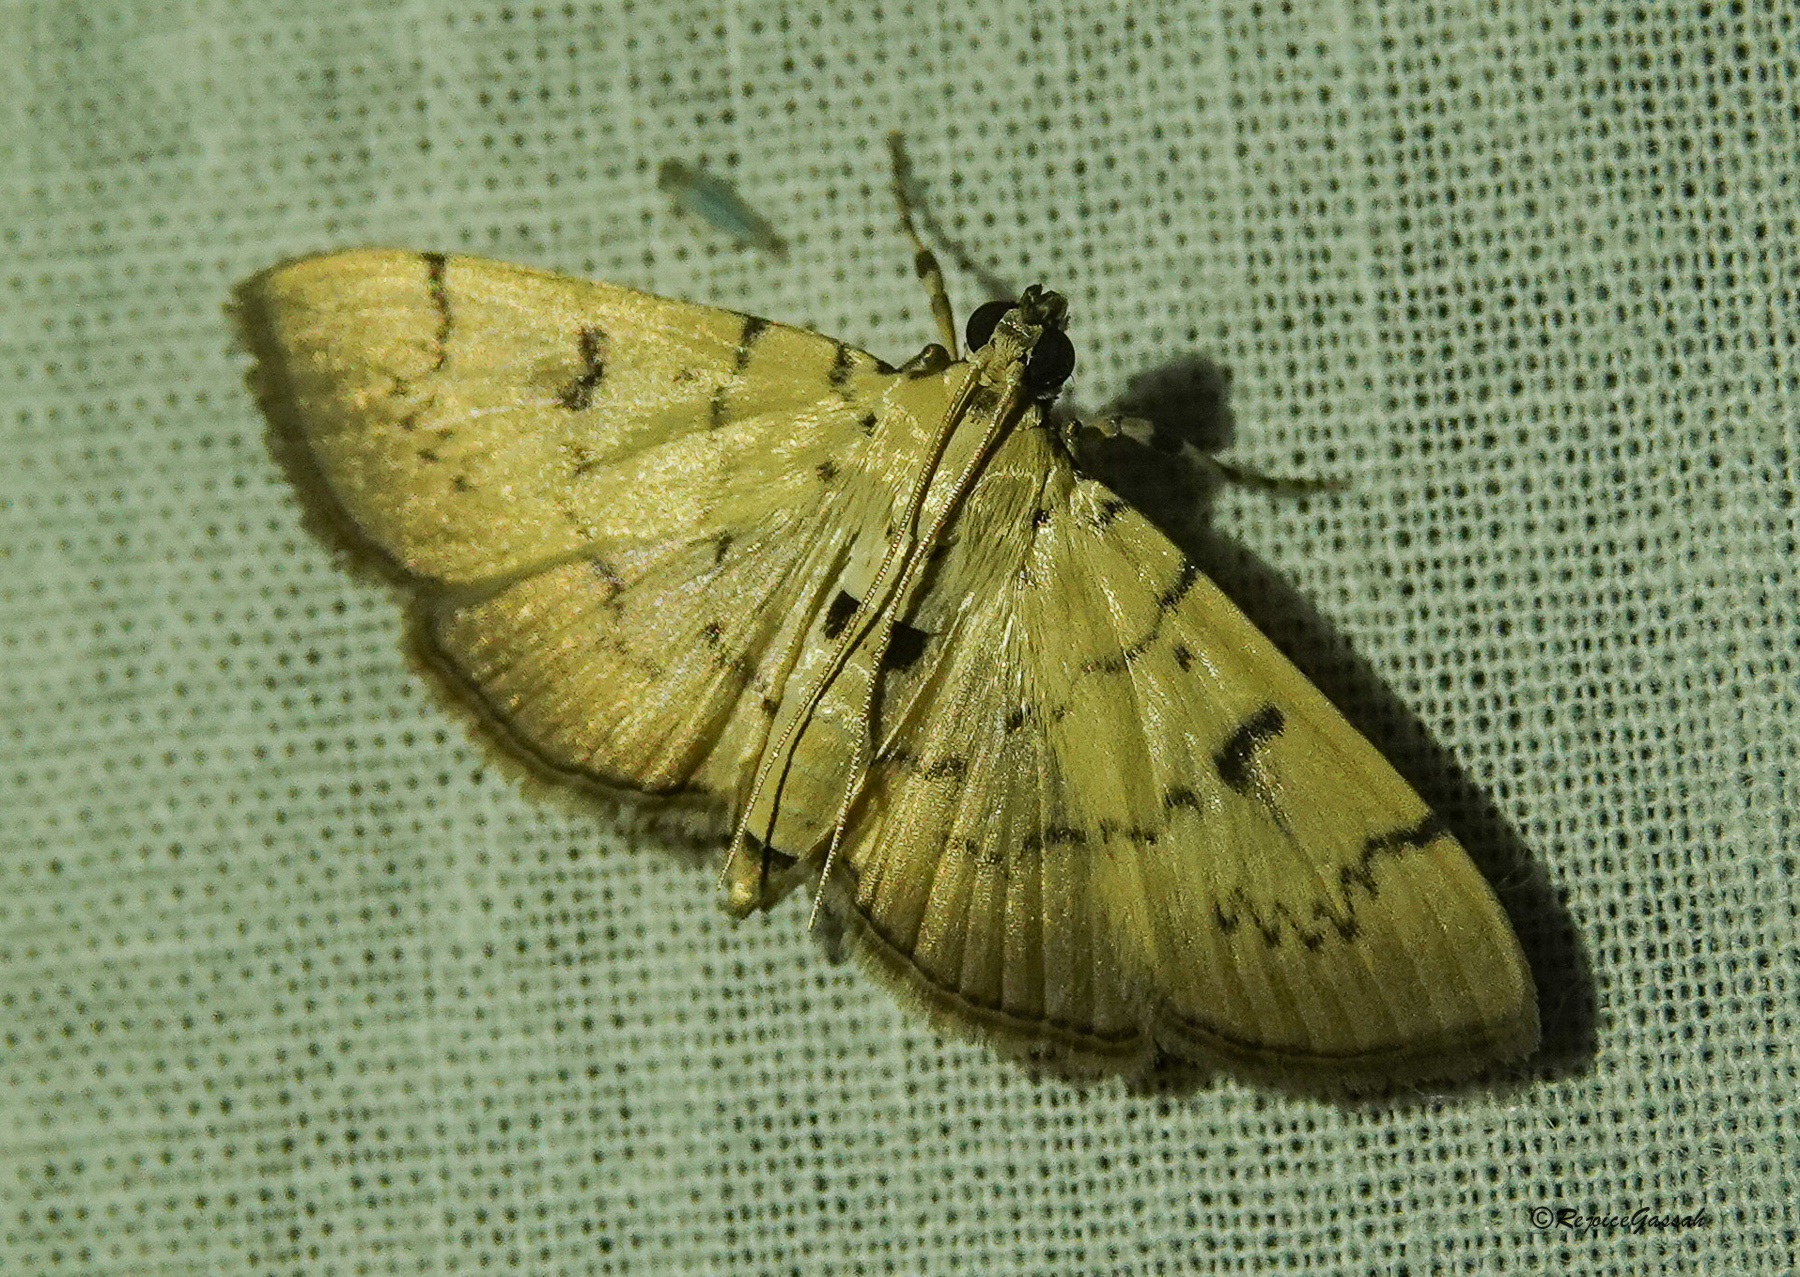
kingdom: Animalia
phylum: Arthropoda
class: Insecta
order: Lepidoptera
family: Crambidae
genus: Dichocrocis
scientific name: Dichocrocis megillalis
